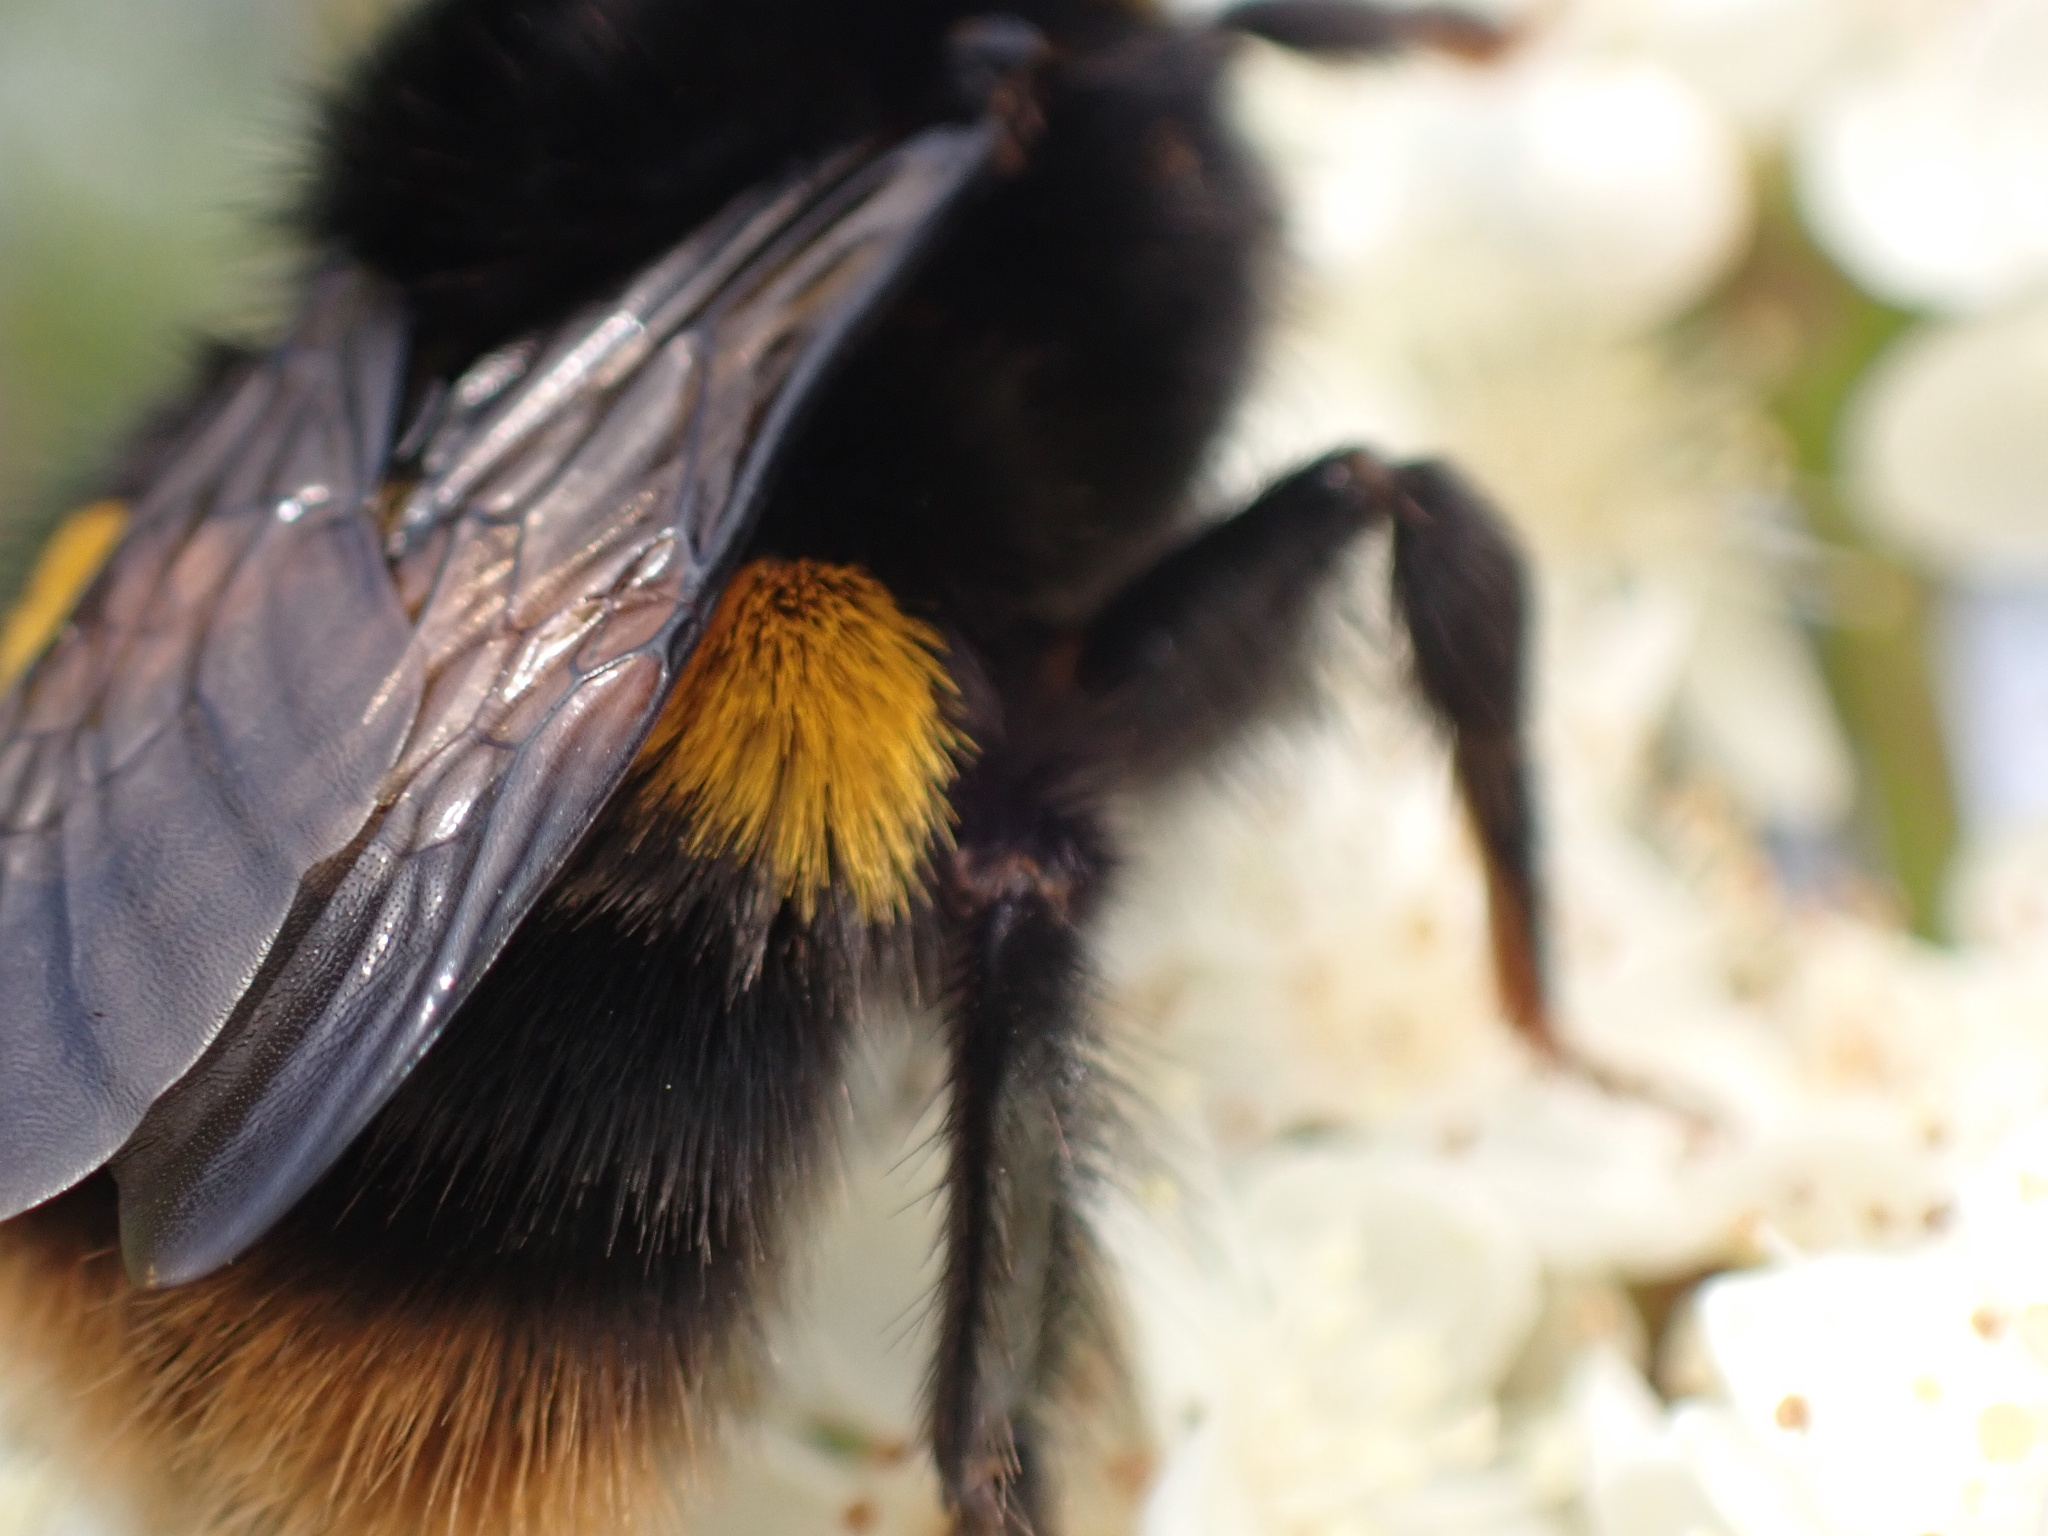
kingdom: Animalia
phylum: Arthropoda
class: Insecta
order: Hymenoptera
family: Apidae
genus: Bombus
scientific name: Bombus terrestris
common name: Buff-tailed bumblebee
